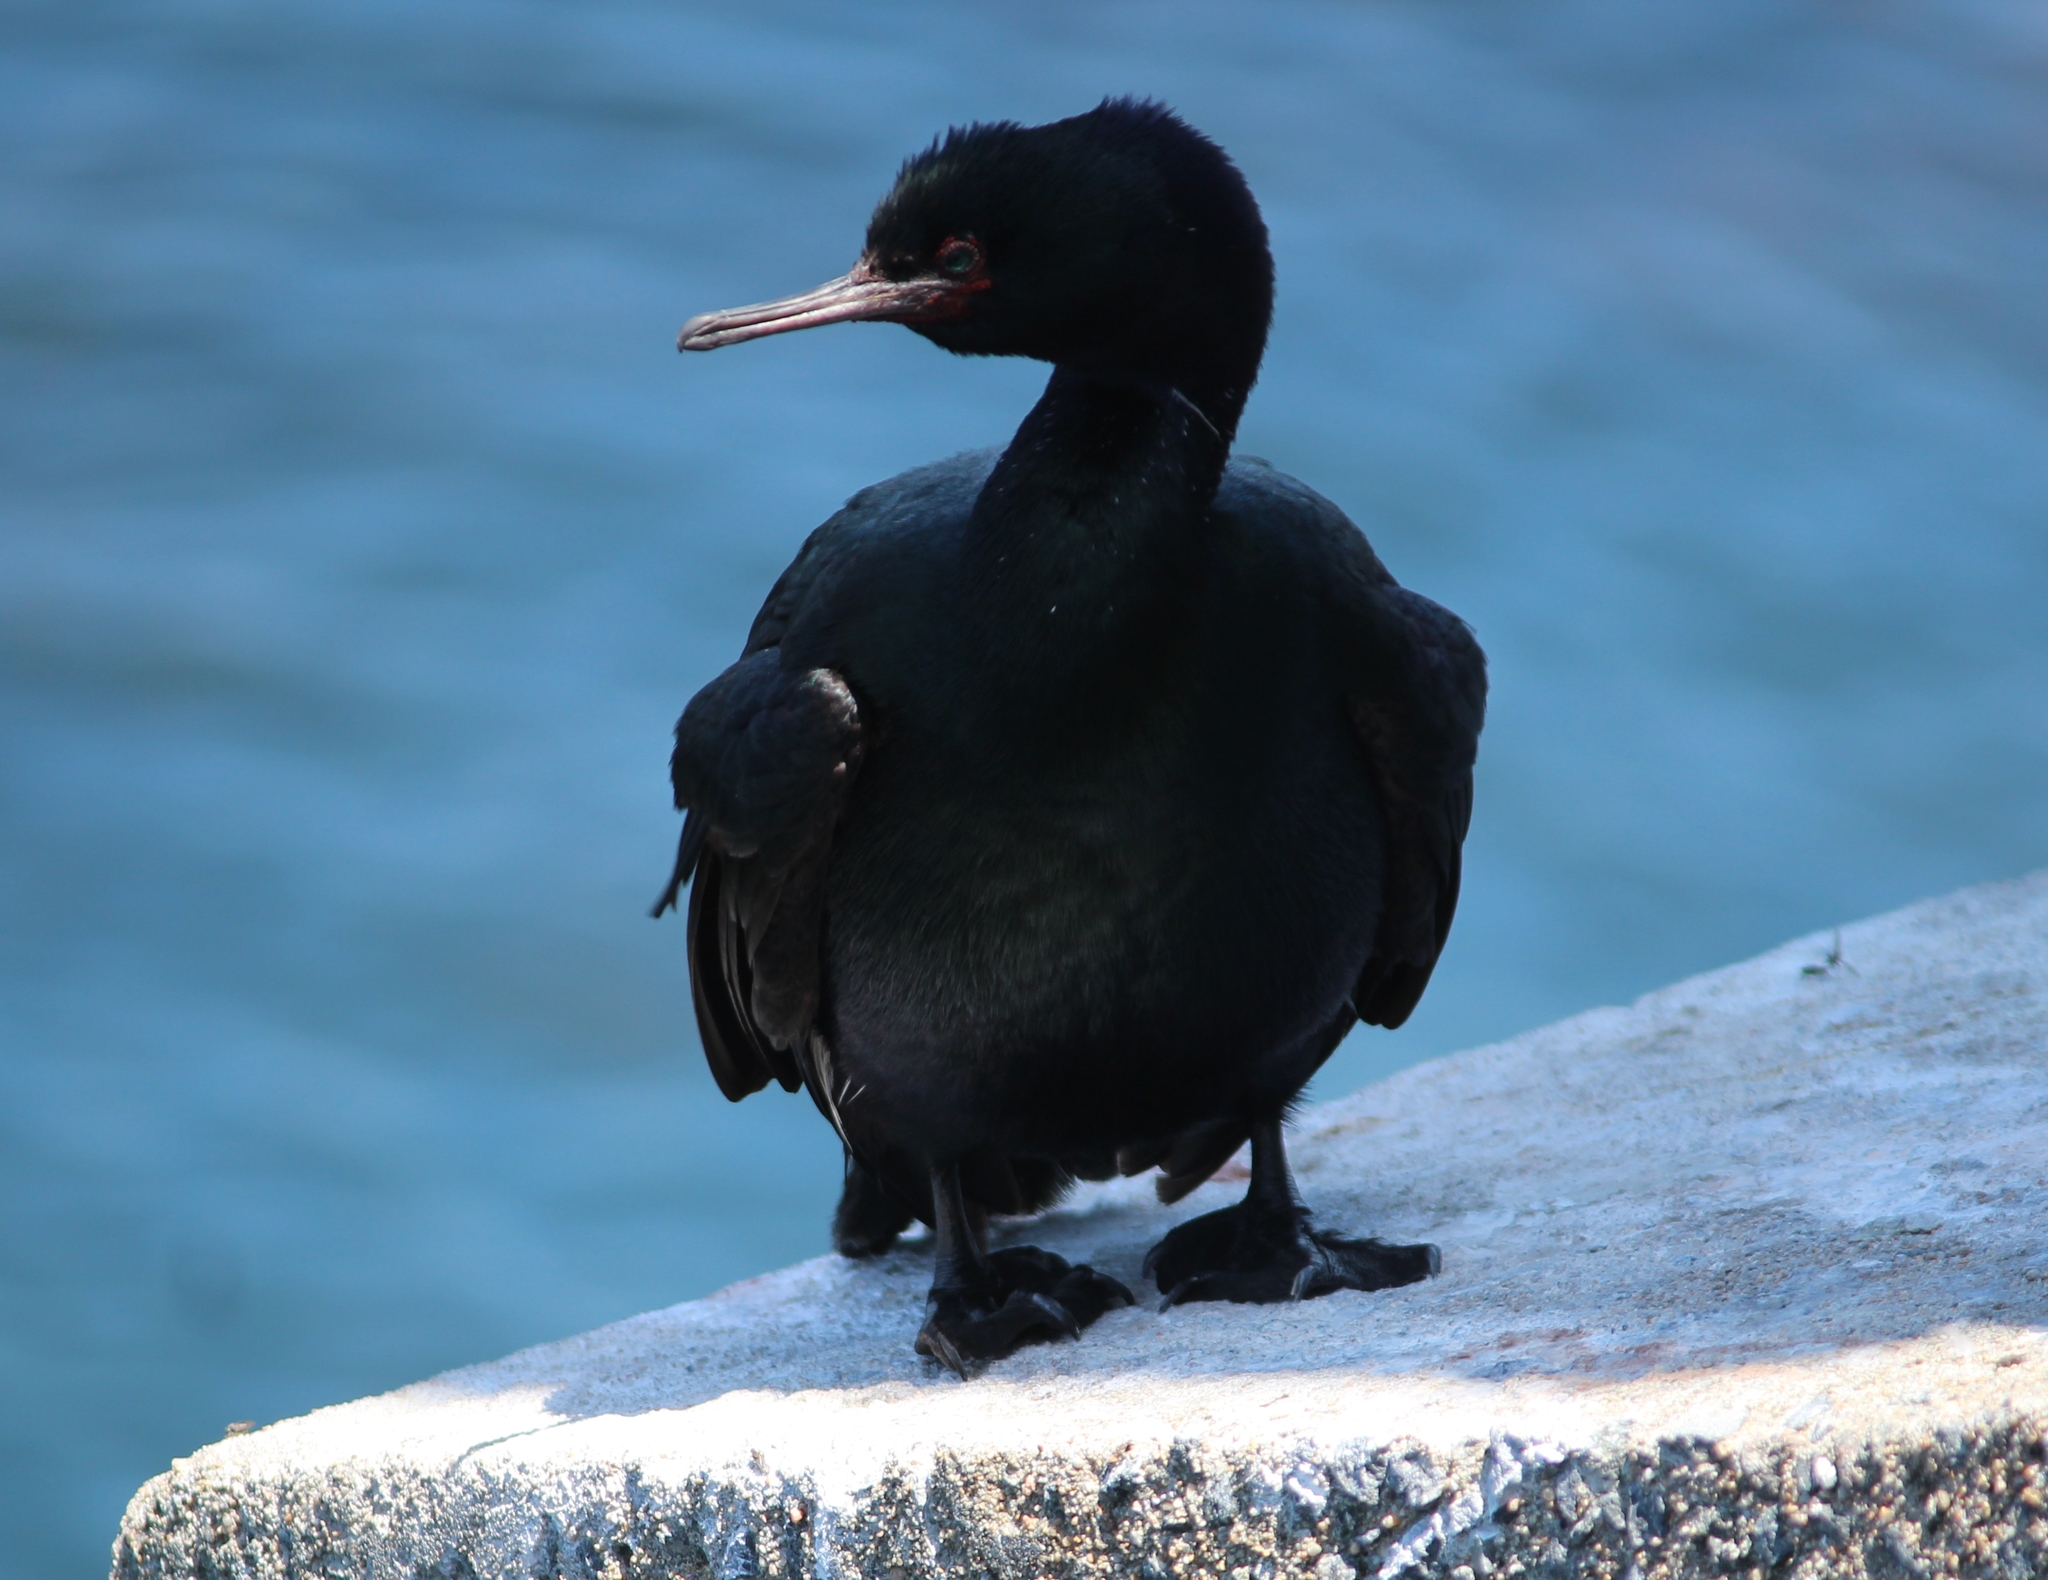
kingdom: Animalia
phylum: Chordata
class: Aves
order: Suliformes
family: Phalacrocoracidae
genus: Phalacrocorax
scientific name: Phalacrocorax pelagicus
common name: Pelagic cormorant
